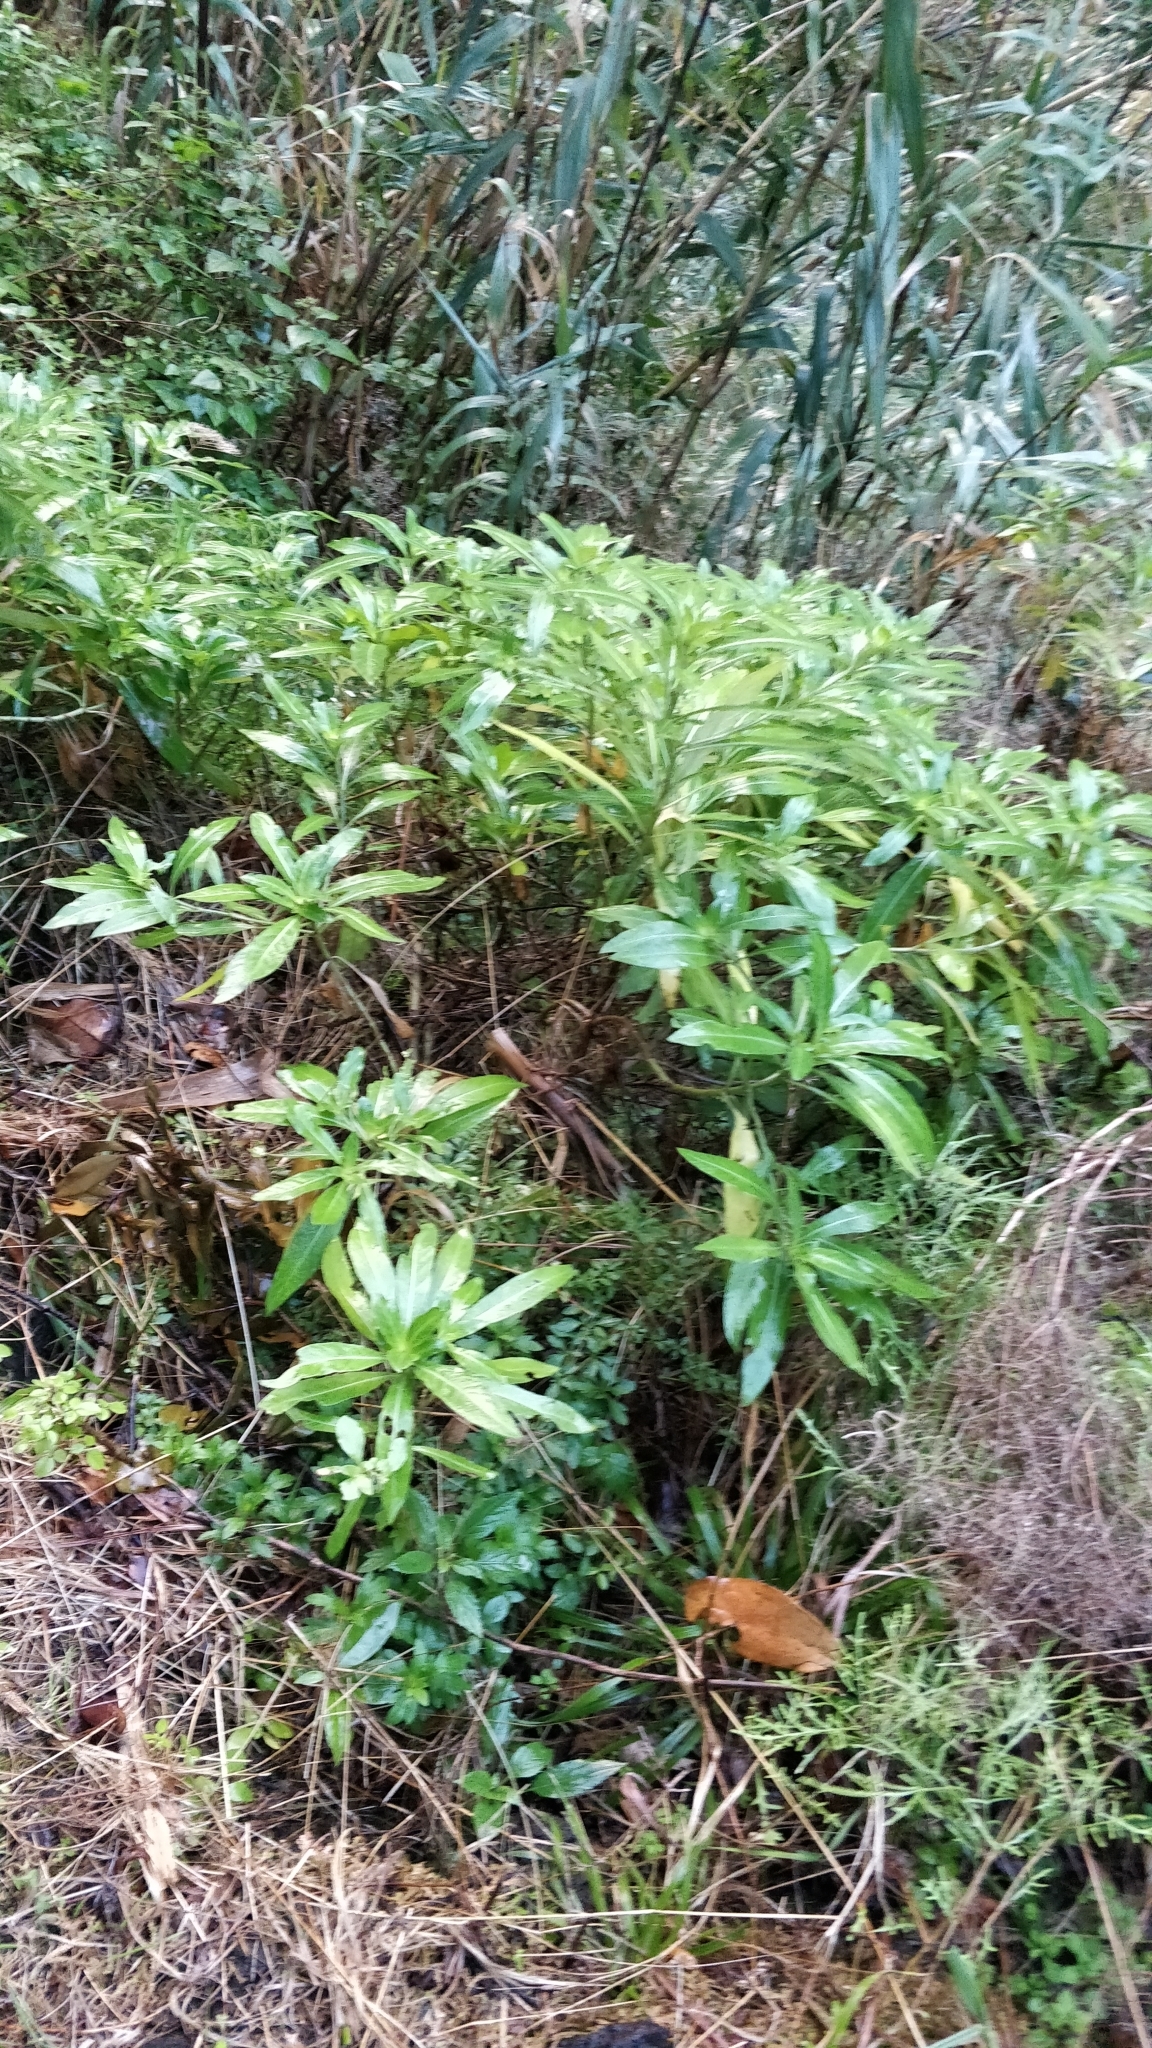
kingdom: Plantae
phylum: Tracheophyta
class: Magnoliopsida
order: Gentianales
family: Rubiaceae
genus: Phyllis
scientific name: Phyllis nobla
